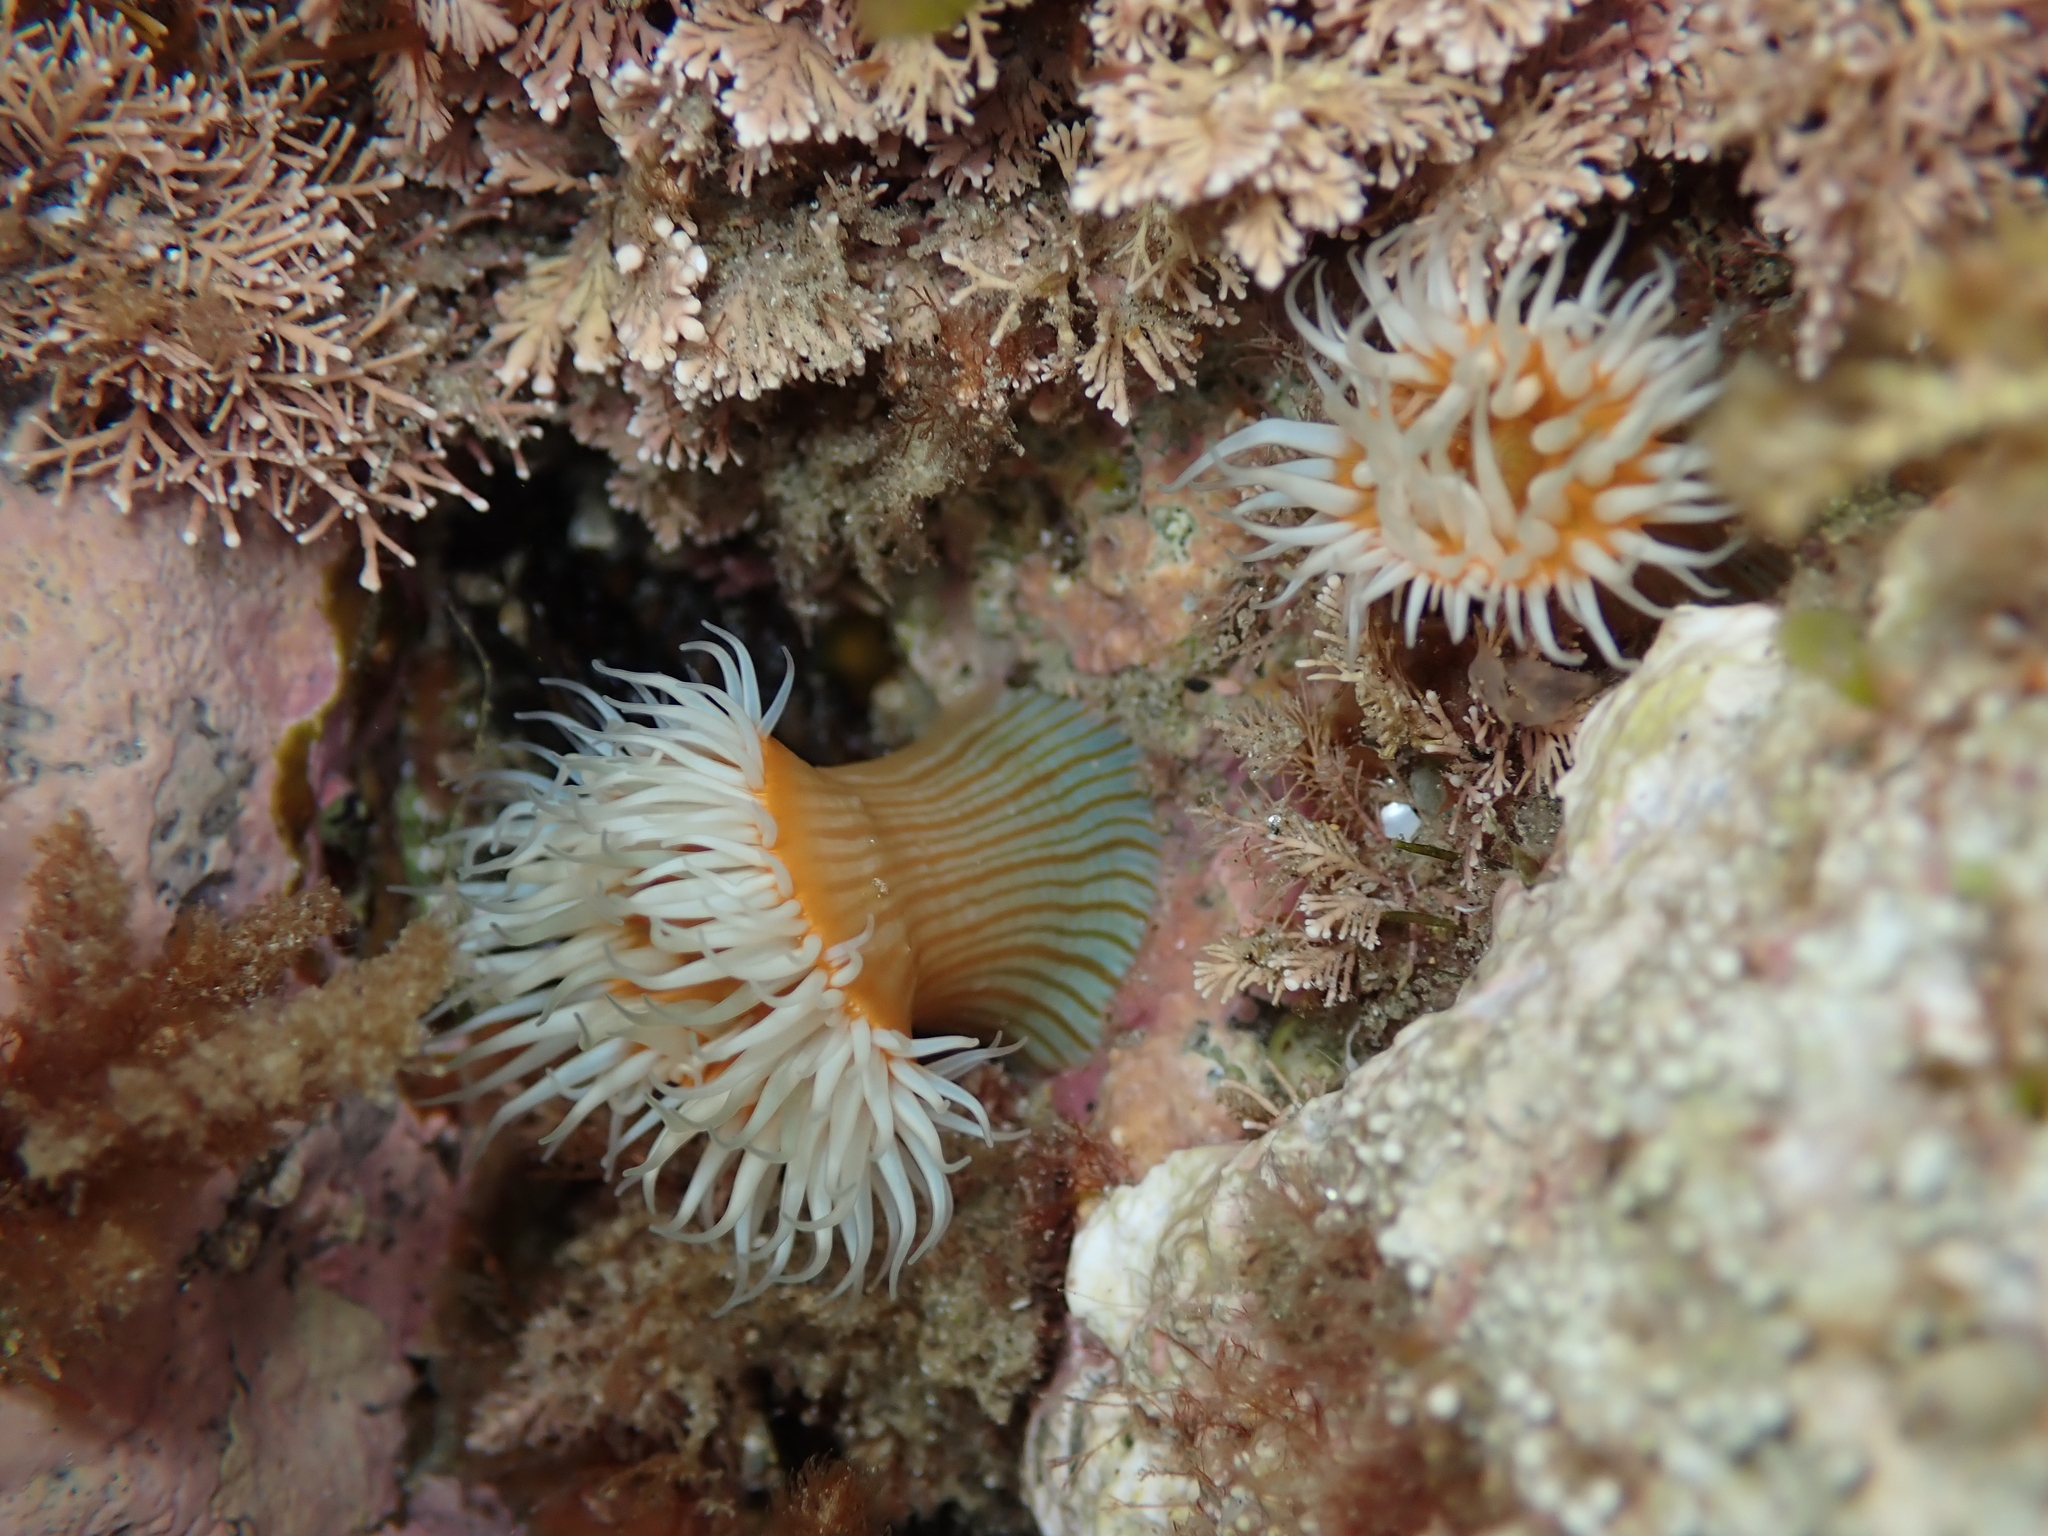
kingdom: Animalia
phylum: Cnidaria
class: Anthozoa
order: Actiniaria
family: Sagartiidae
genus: Anthothoe
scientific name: Anthothoe albocincta
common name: Orange striped anemone
